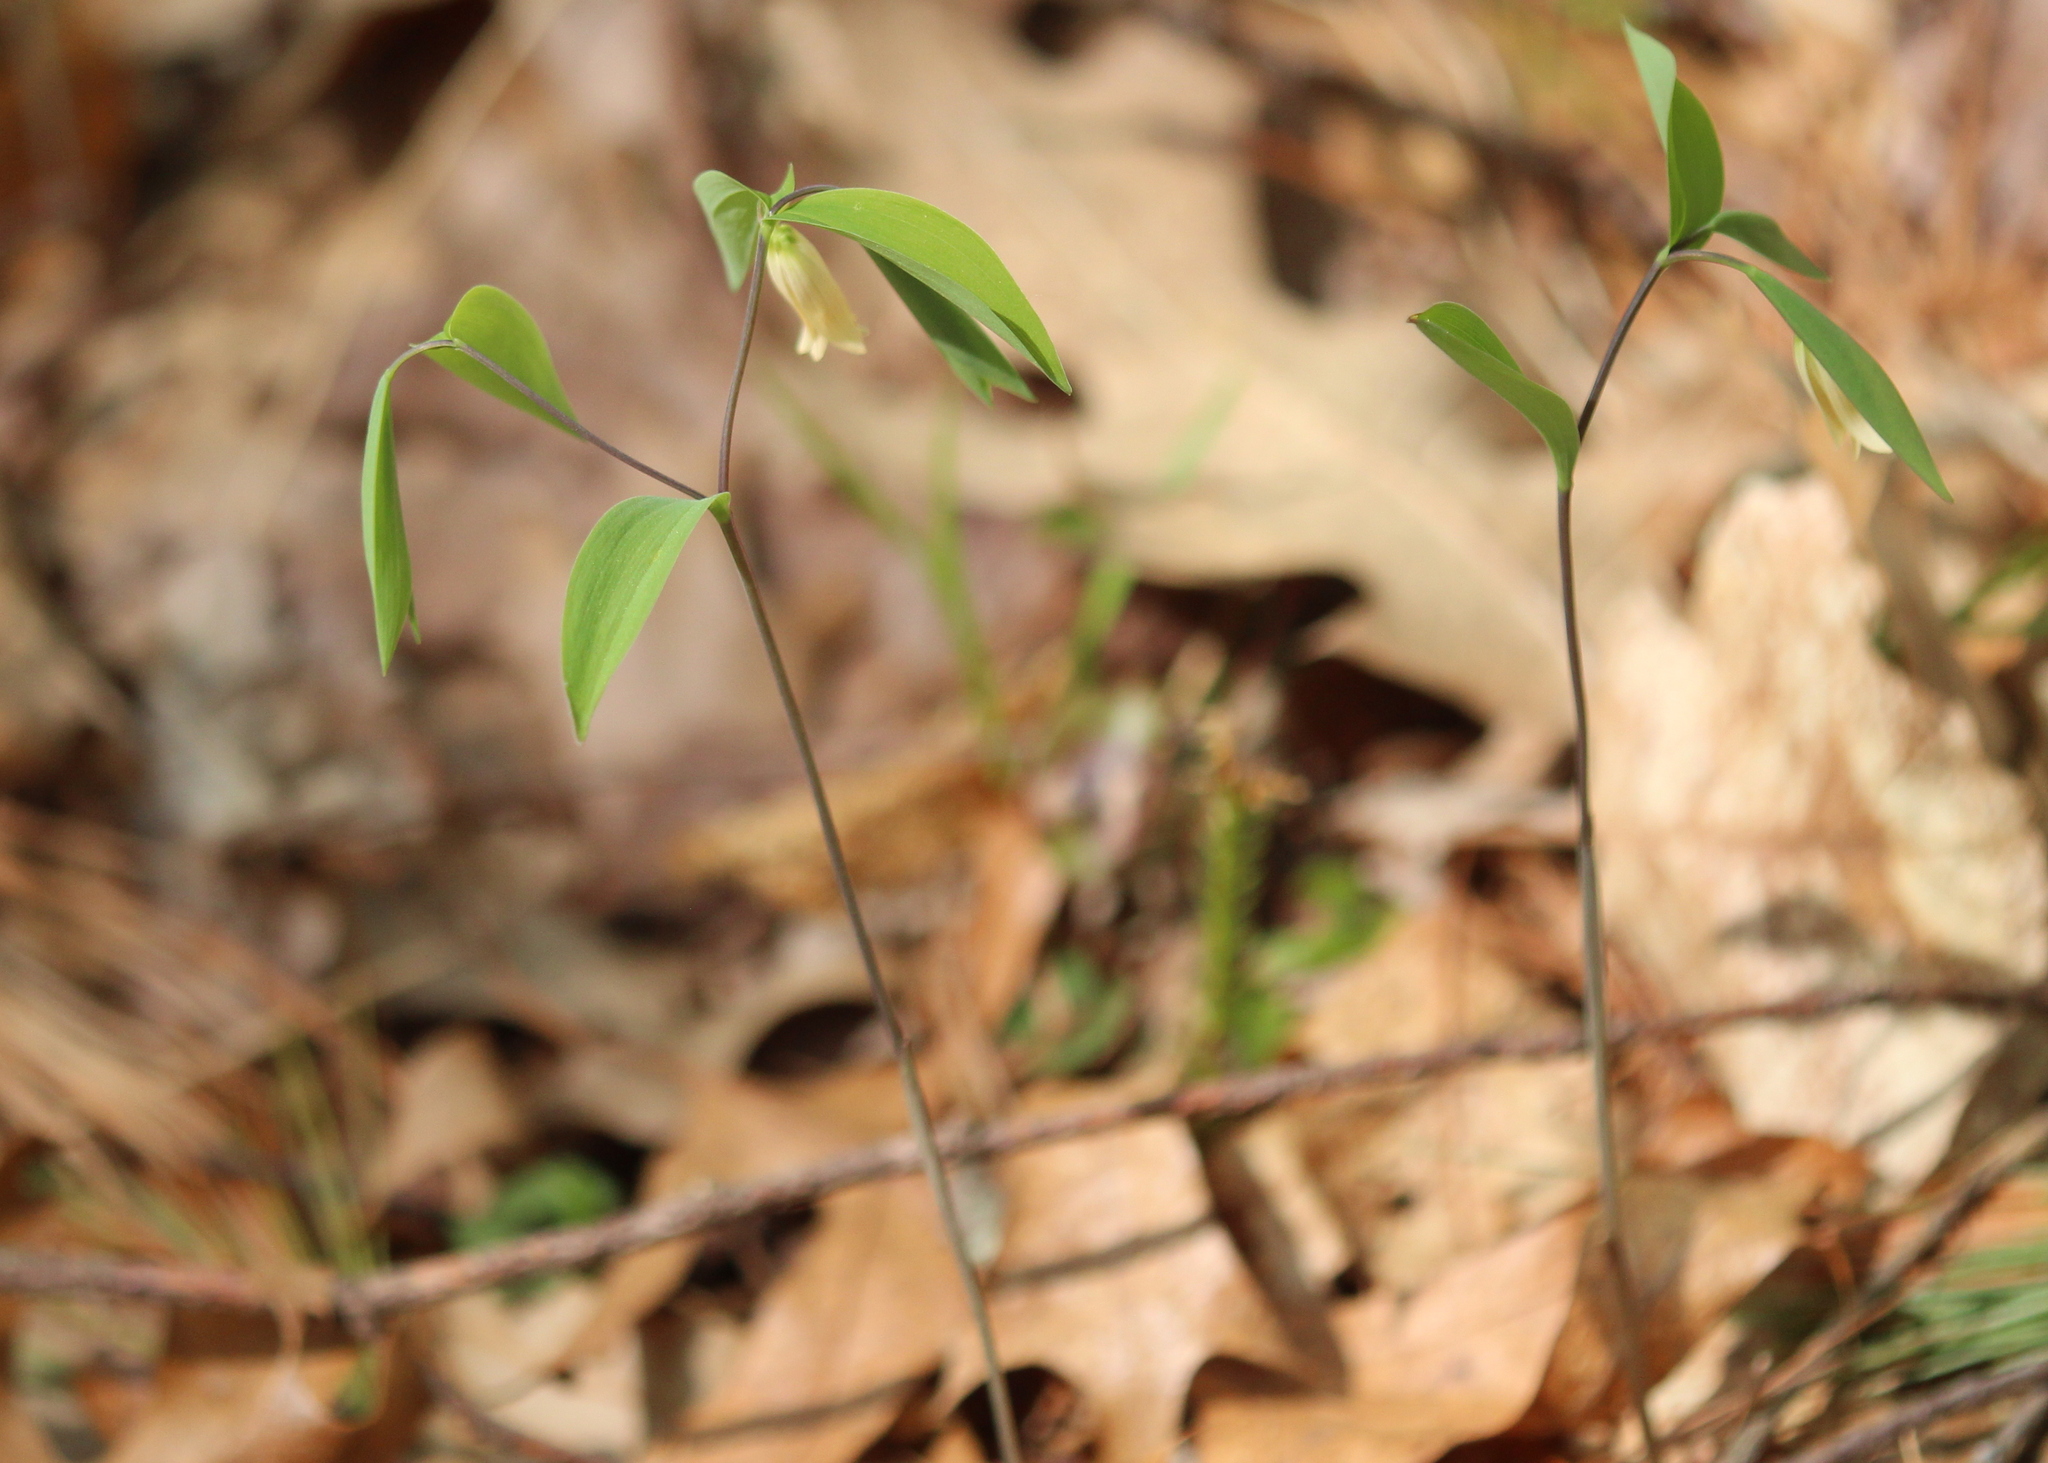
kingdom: Plantae
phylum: Tracheophyta
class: Liliopsida
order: Liliales
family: Colchicaceae
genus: Uvularia
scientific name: Uvularia sessilifolia
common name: Straw-lily
